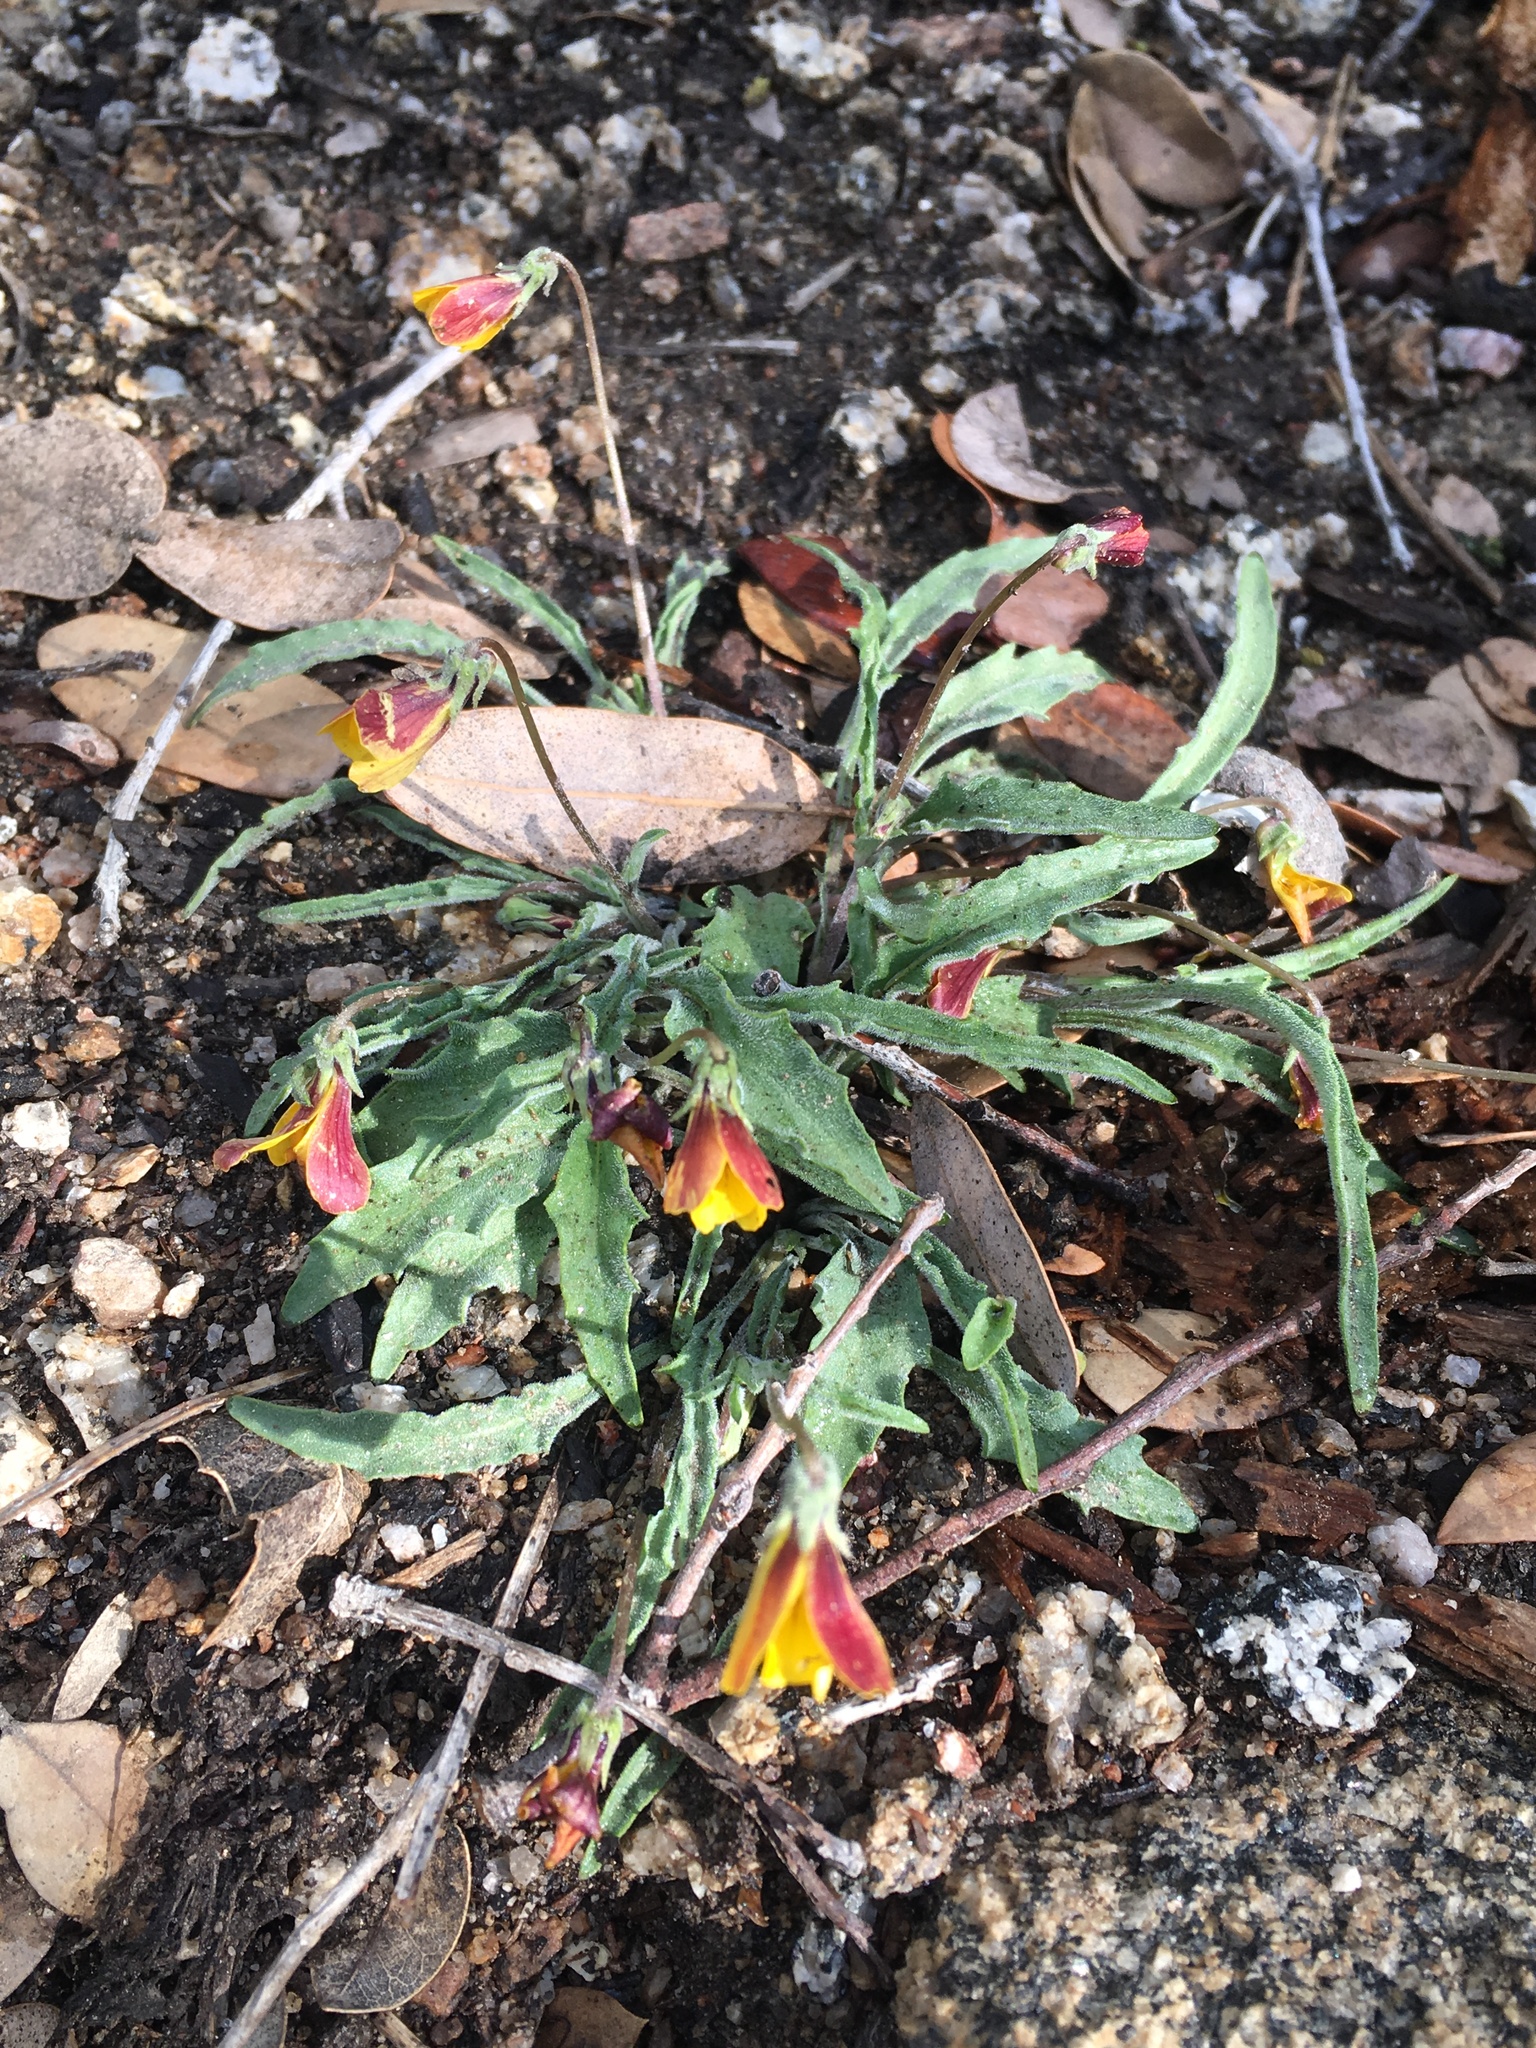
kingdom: Plantae
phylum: Tracheophyta
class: Magnoliopsida
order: Malpighiales
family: Violaceae
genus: Viola
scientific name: Viola pinetorum
